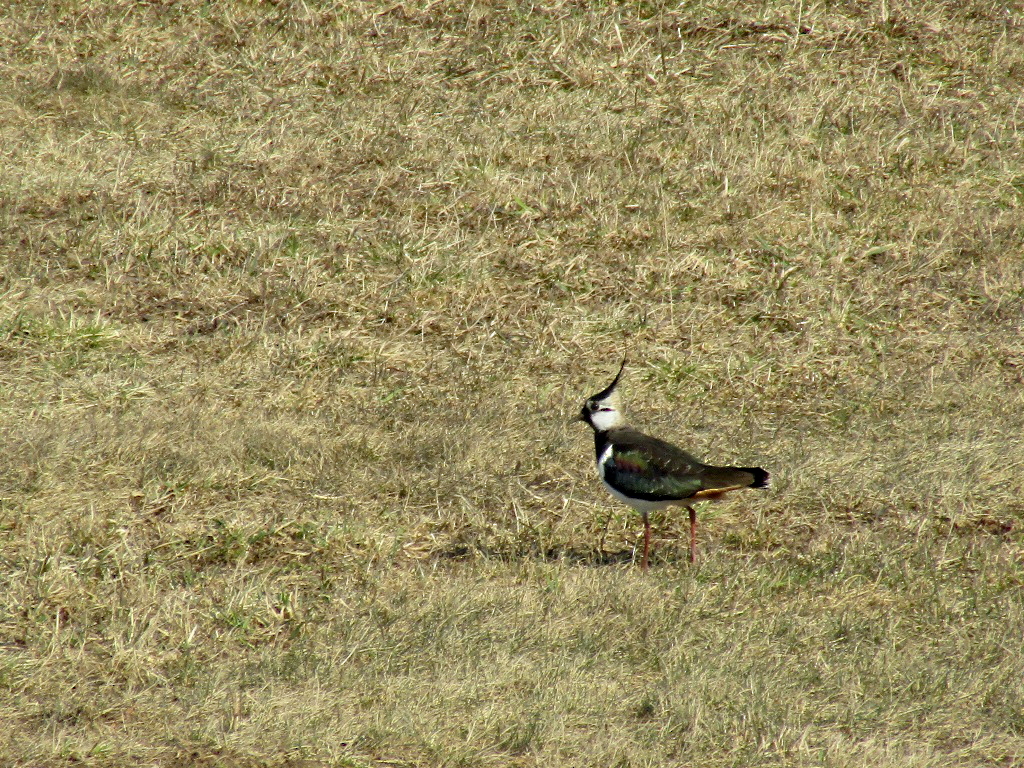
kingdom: Animalia
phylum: Chordata
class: Aves
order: Charadriiformes
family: Charadriidae
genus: Vanellus
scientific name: Vanellus vanellus
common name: Northern lapwing
